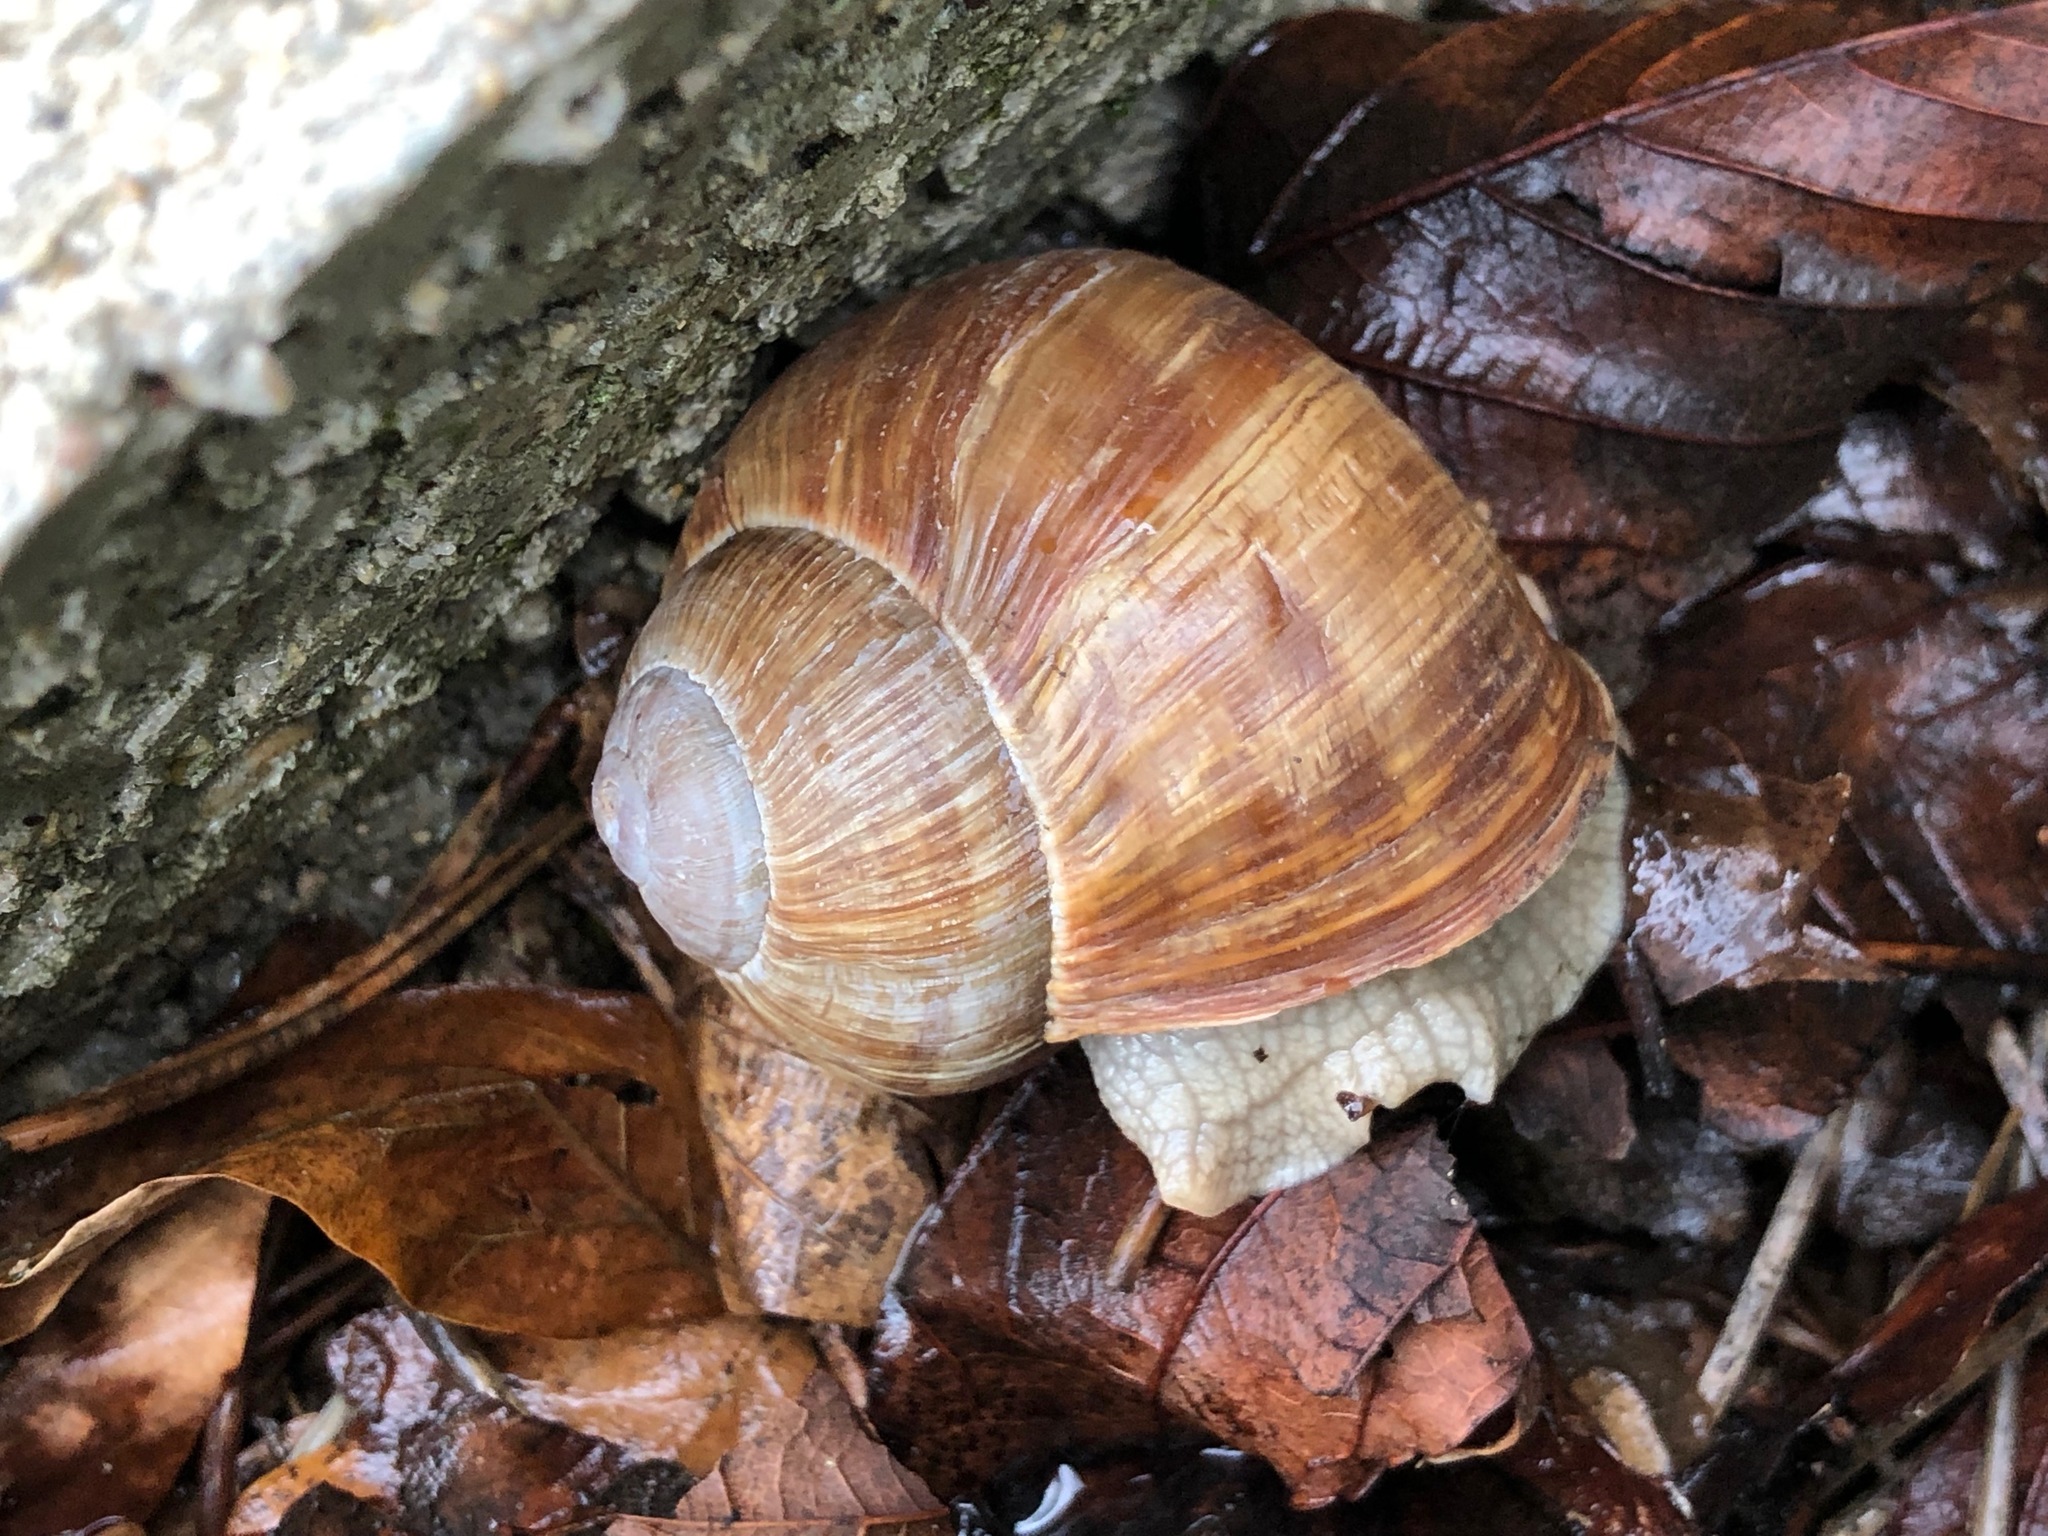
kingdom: Animalia
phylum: Mollusca
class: Gastropoda
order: Stylommatophora
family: Helicidae
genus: Helix
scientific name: Helix pomatia
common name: Roman snail
